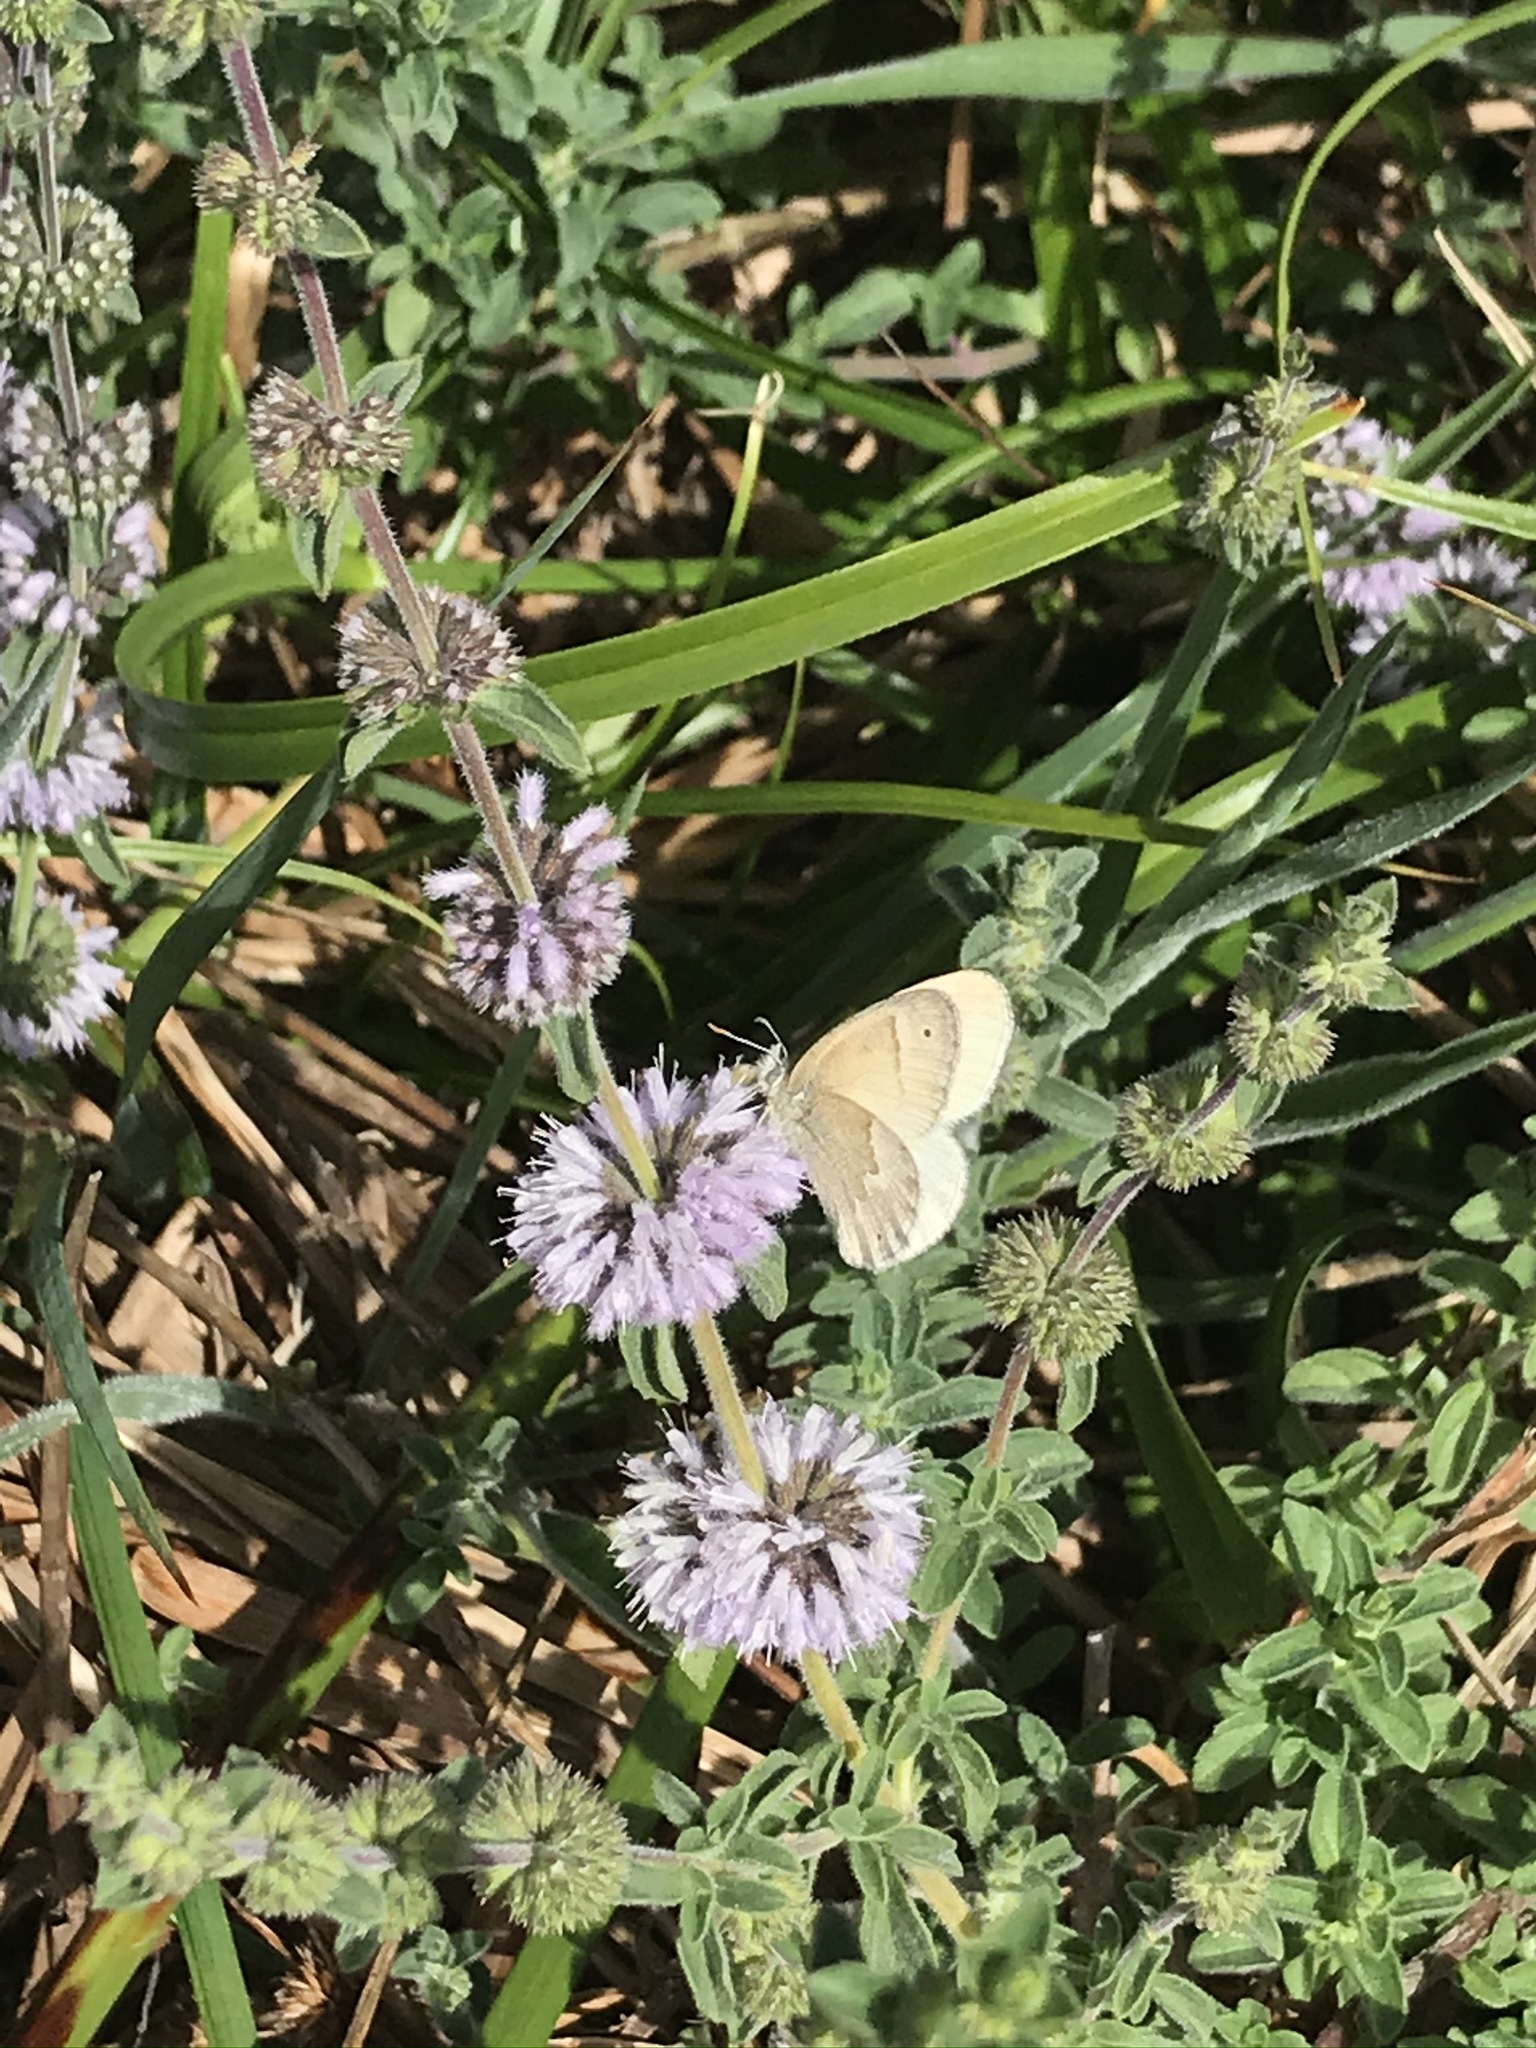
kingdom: Animalia
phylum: Arthropoda
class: Insecta
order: Lepidoptera
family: Nymphalidae
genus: Coenonympha
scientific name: Coenonympha california
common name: Common ringlet
